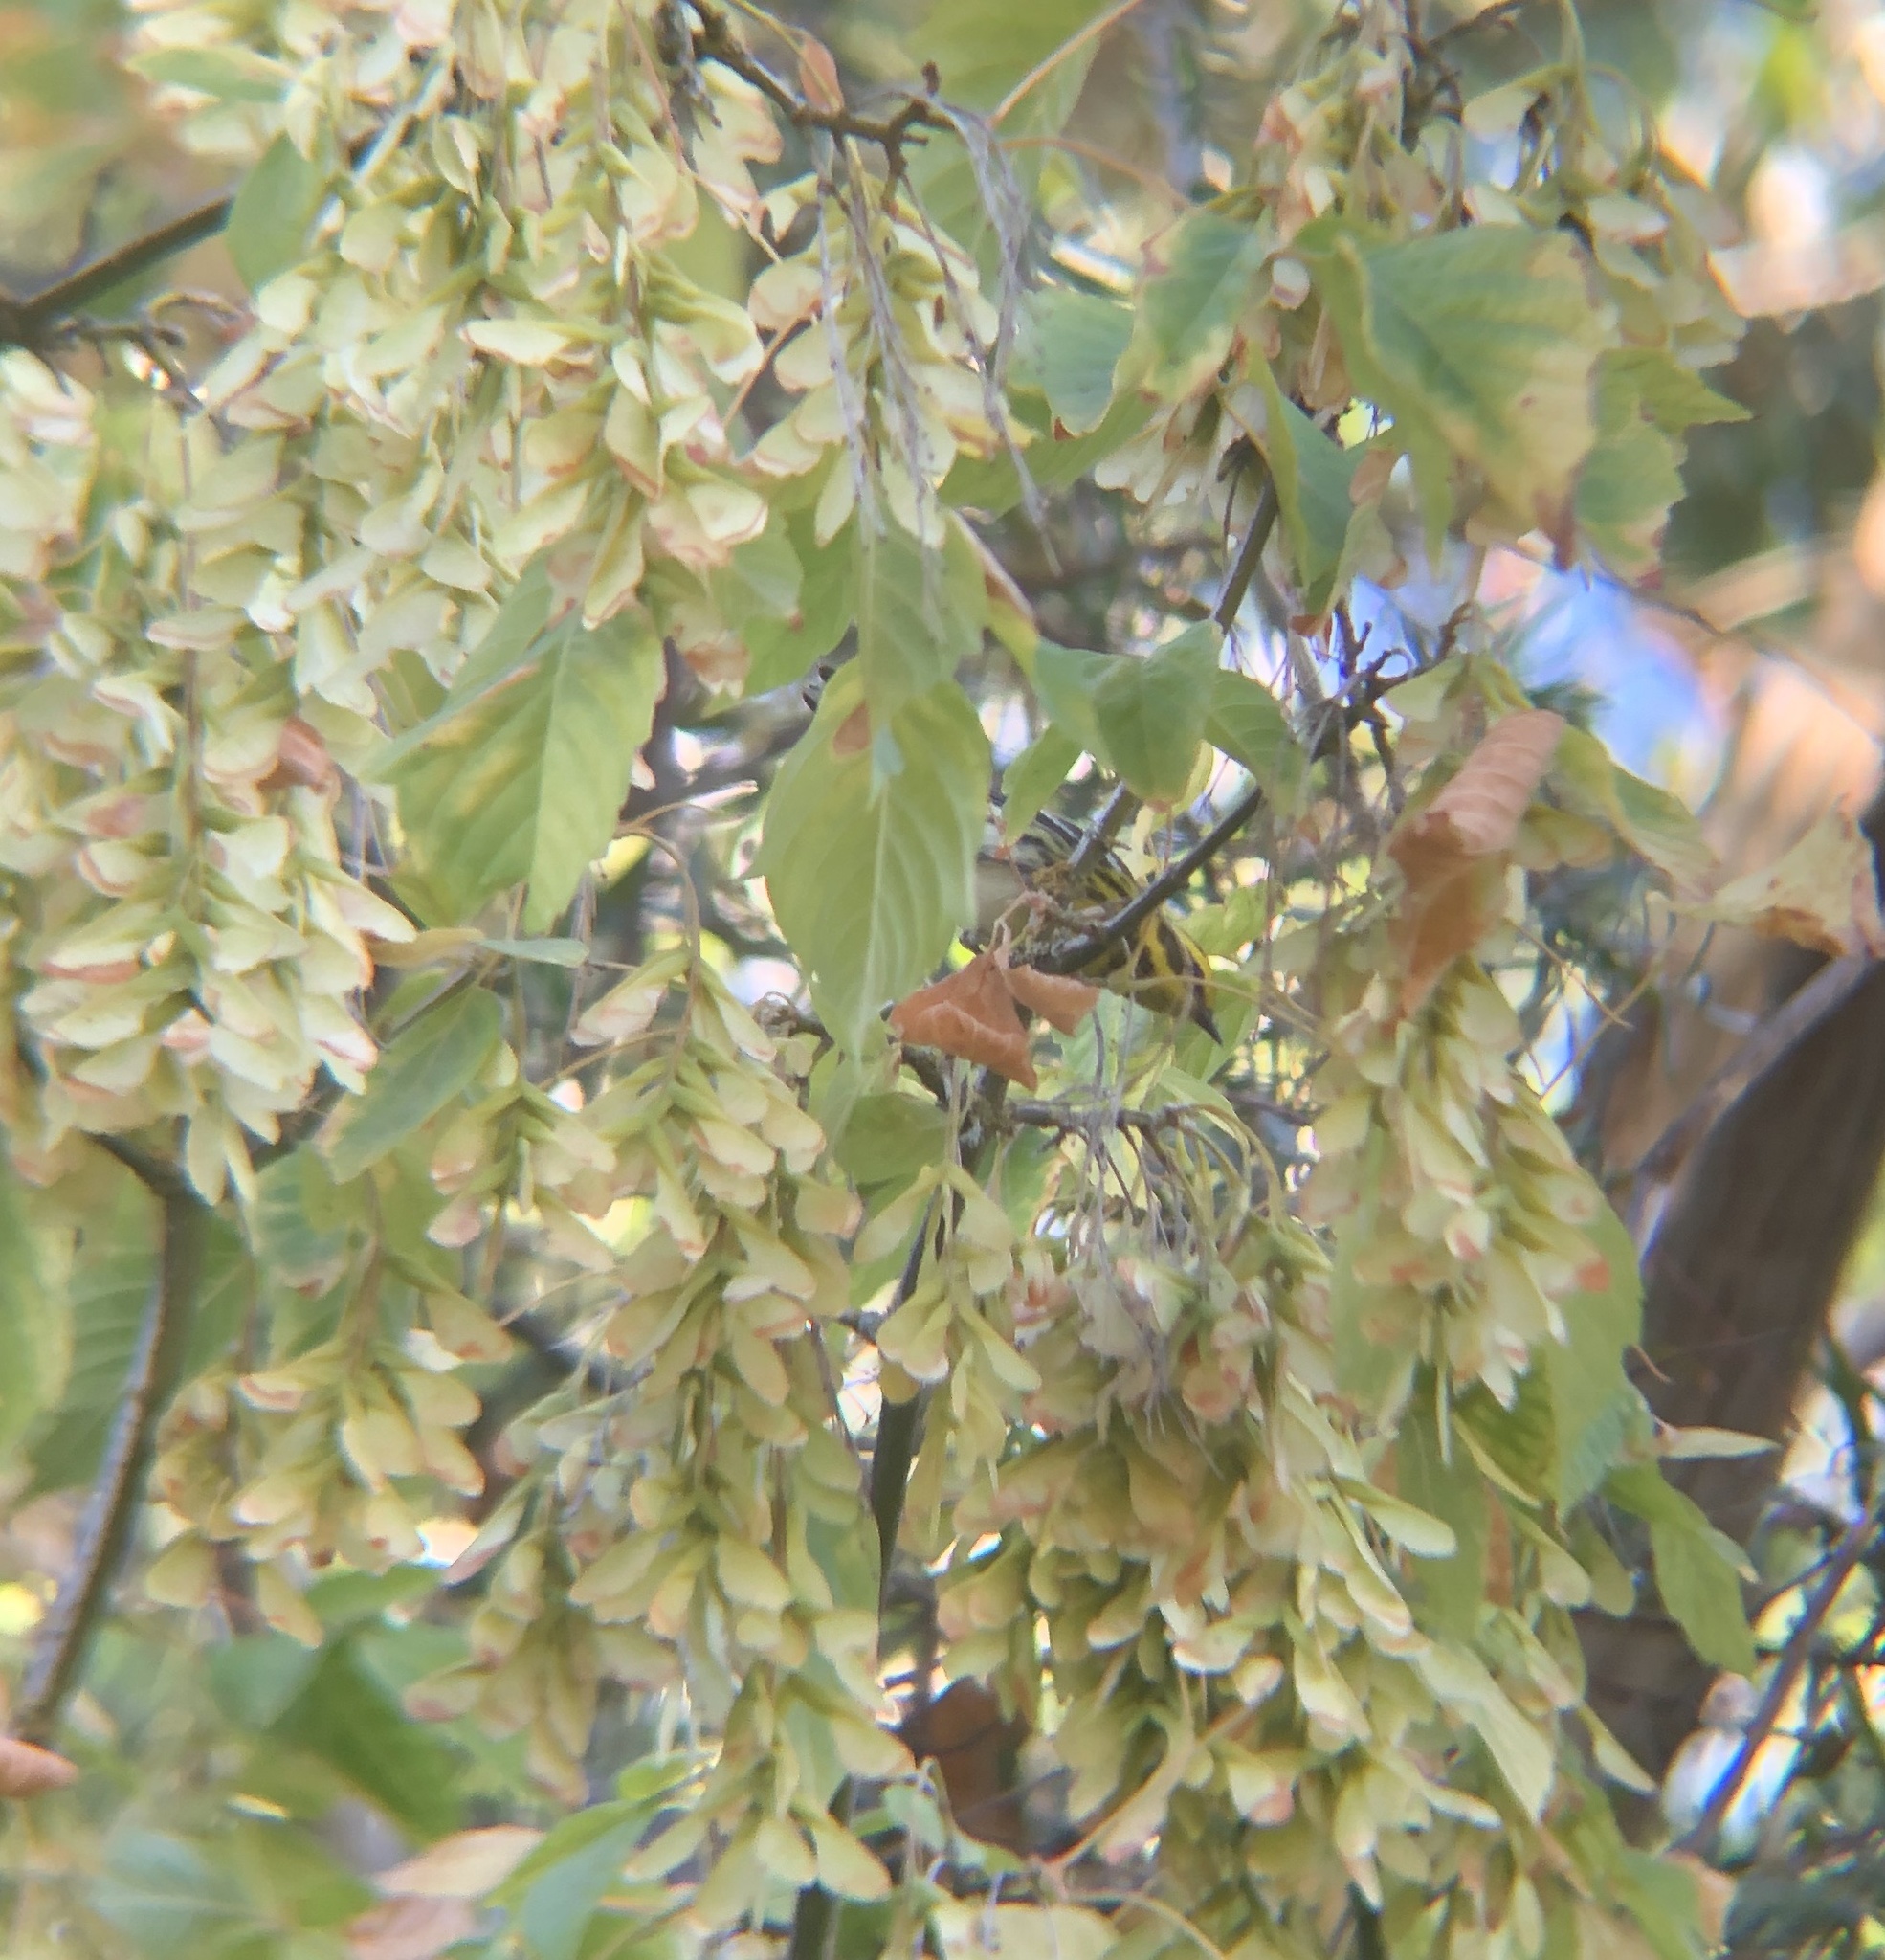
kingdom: Animalia
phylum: Chordata
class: Aves
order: Passeriformes
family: Parulidae
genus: Setophaga
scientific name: Setophaga townsendi
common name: Townsend's warbler
